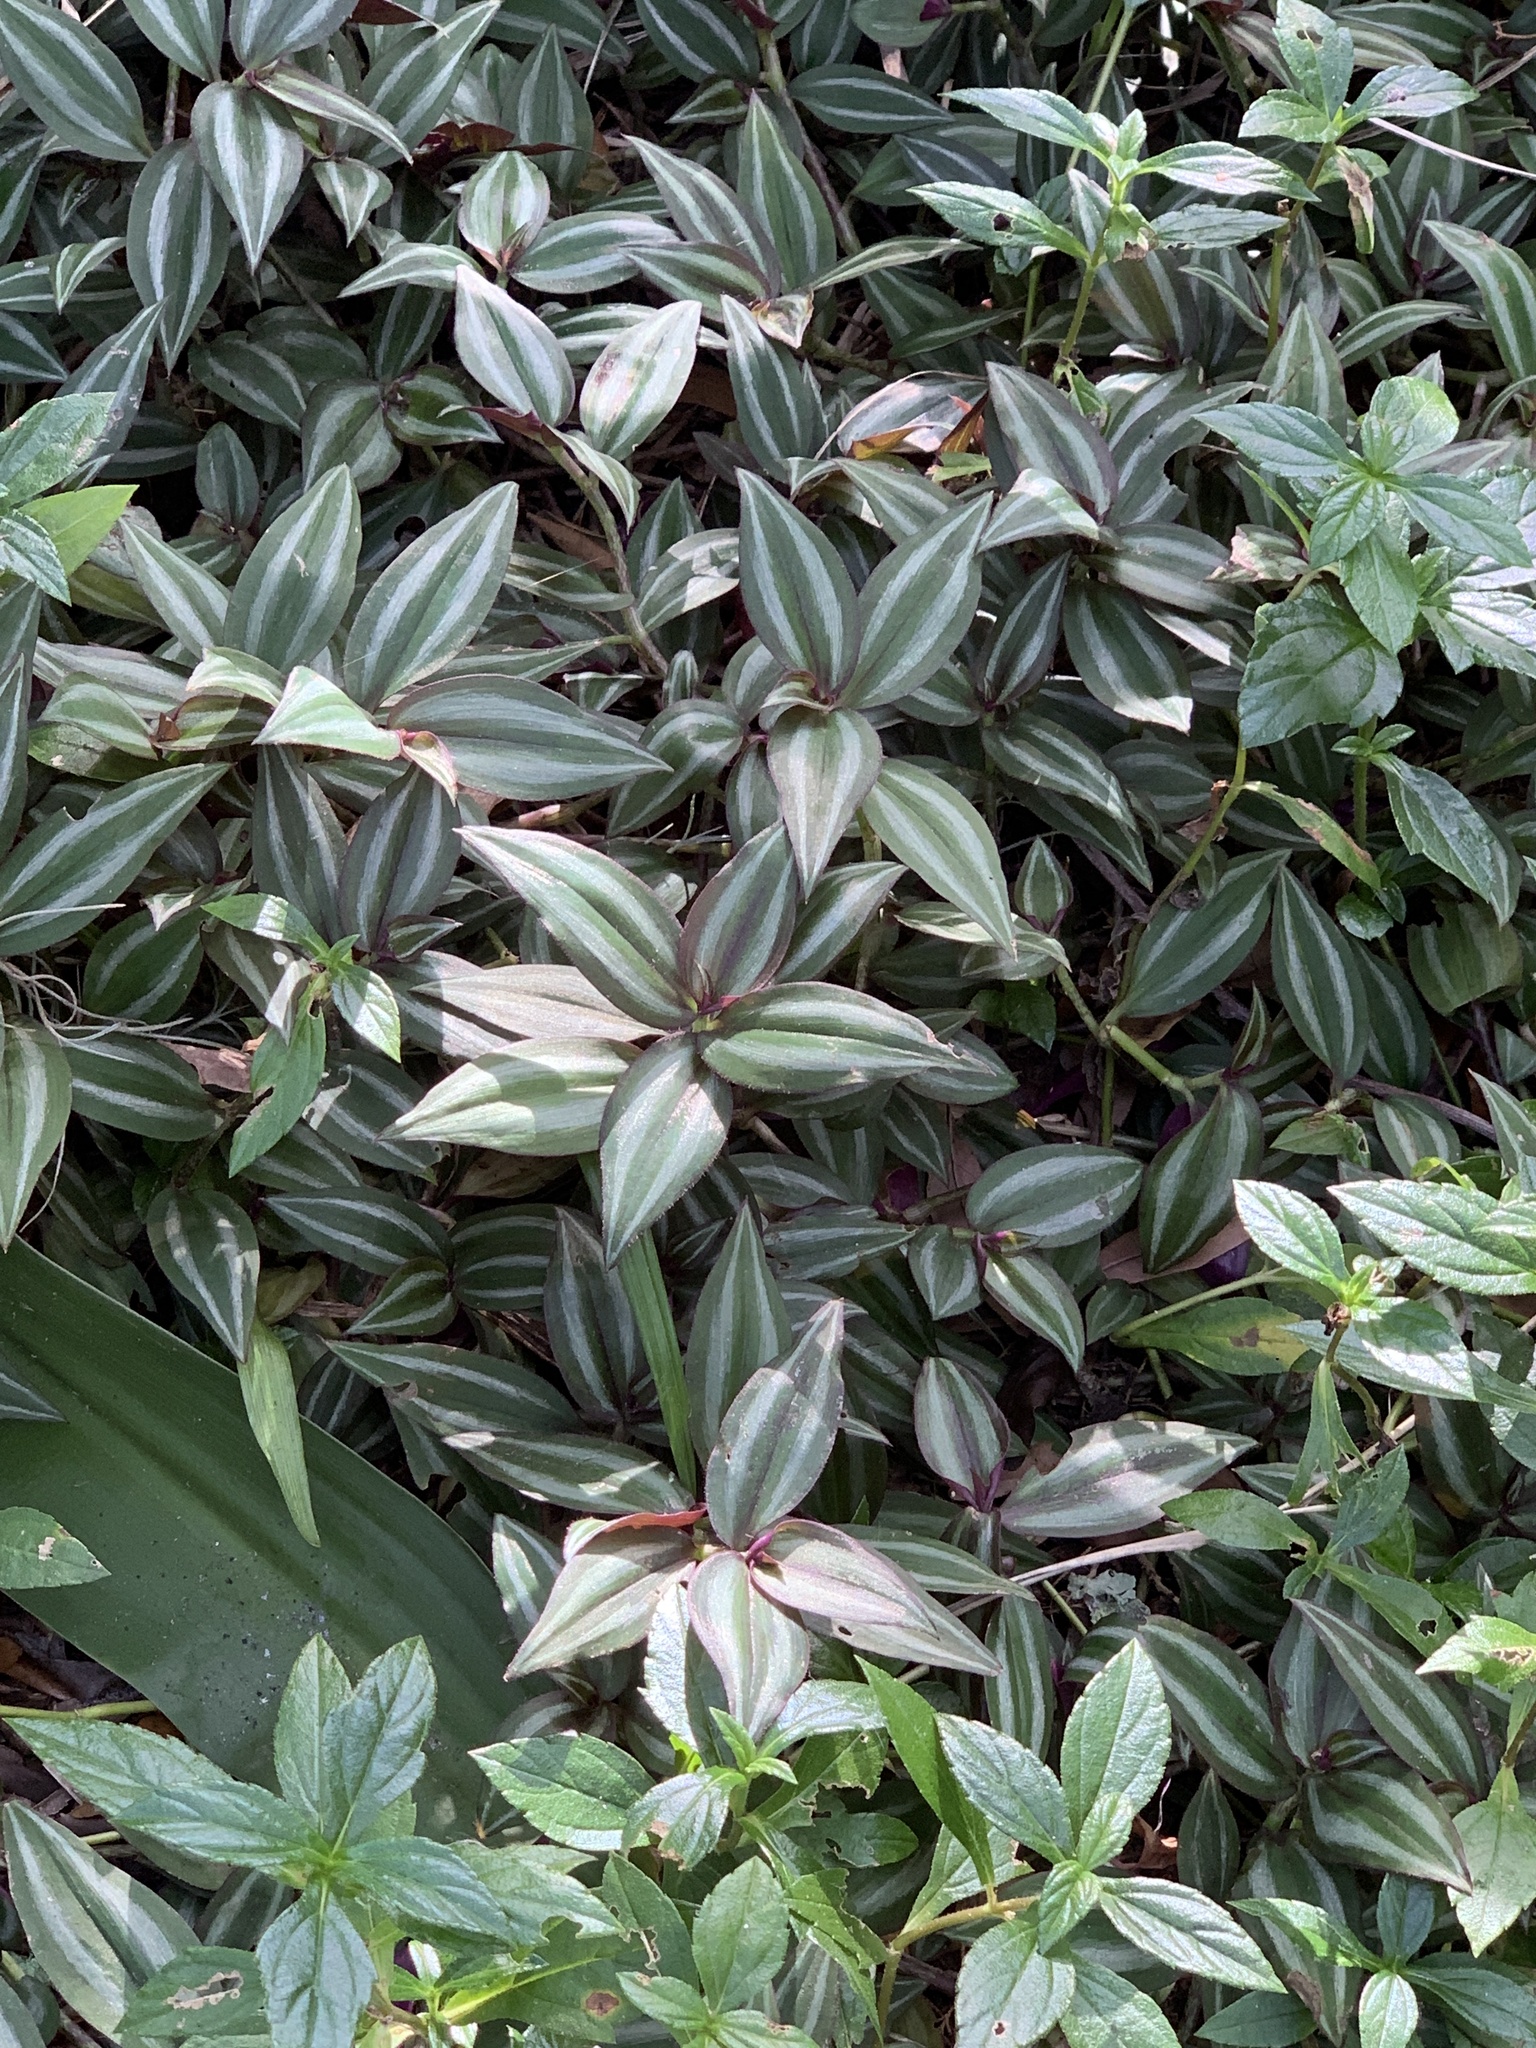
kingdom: Plantae
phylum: Tracheophyta
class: Liliopsida
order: Commelinales
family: Commelinaceae
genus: Tradescantia
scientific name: Tradescantia zebrina
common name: Inchplant
